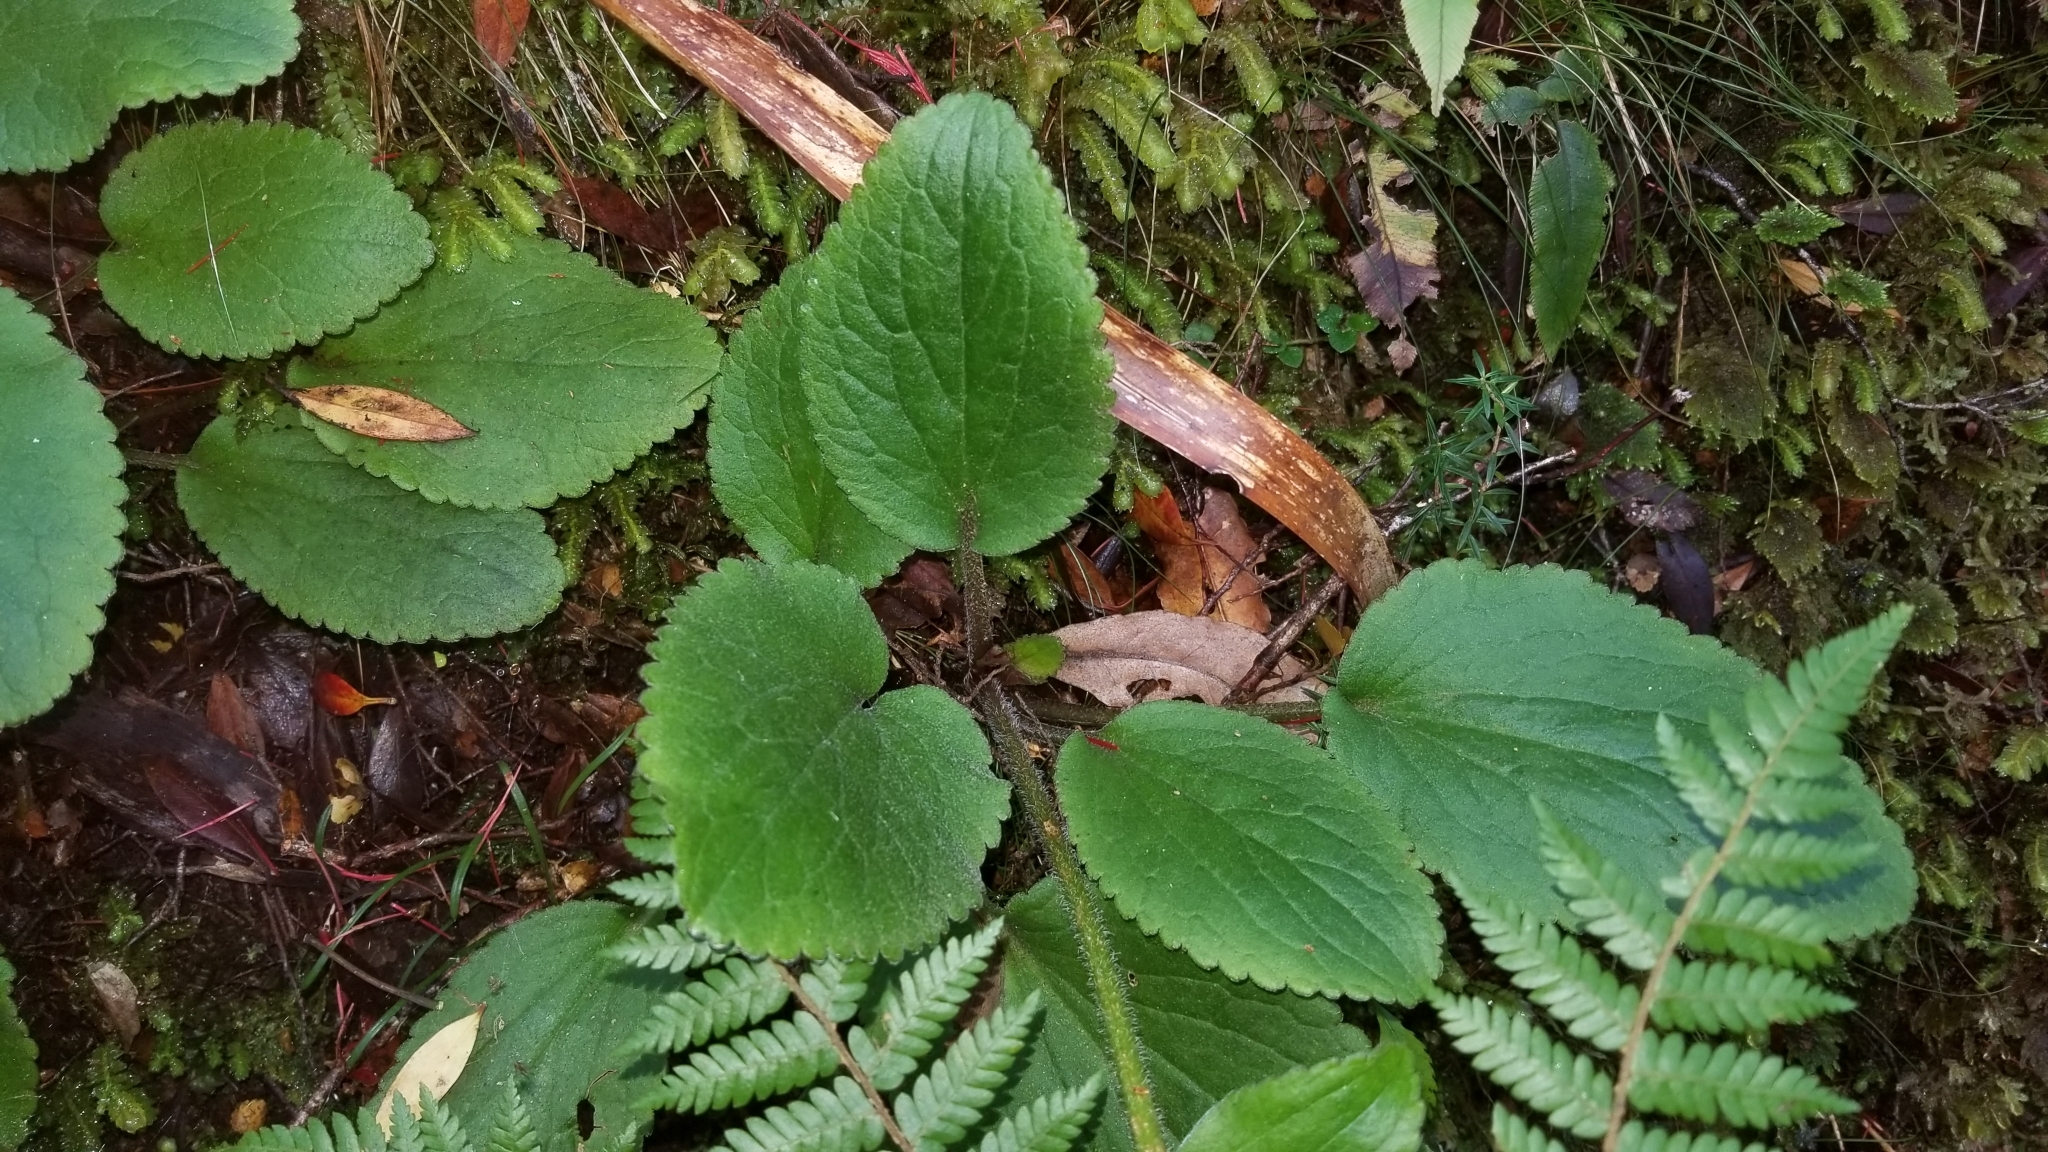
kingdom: Plantae
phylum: Tracheophyta
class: Magnoliopsida
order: Lamiales
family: Plantaginaceae
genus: Ourisia
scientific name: Ourisia macrophylla
